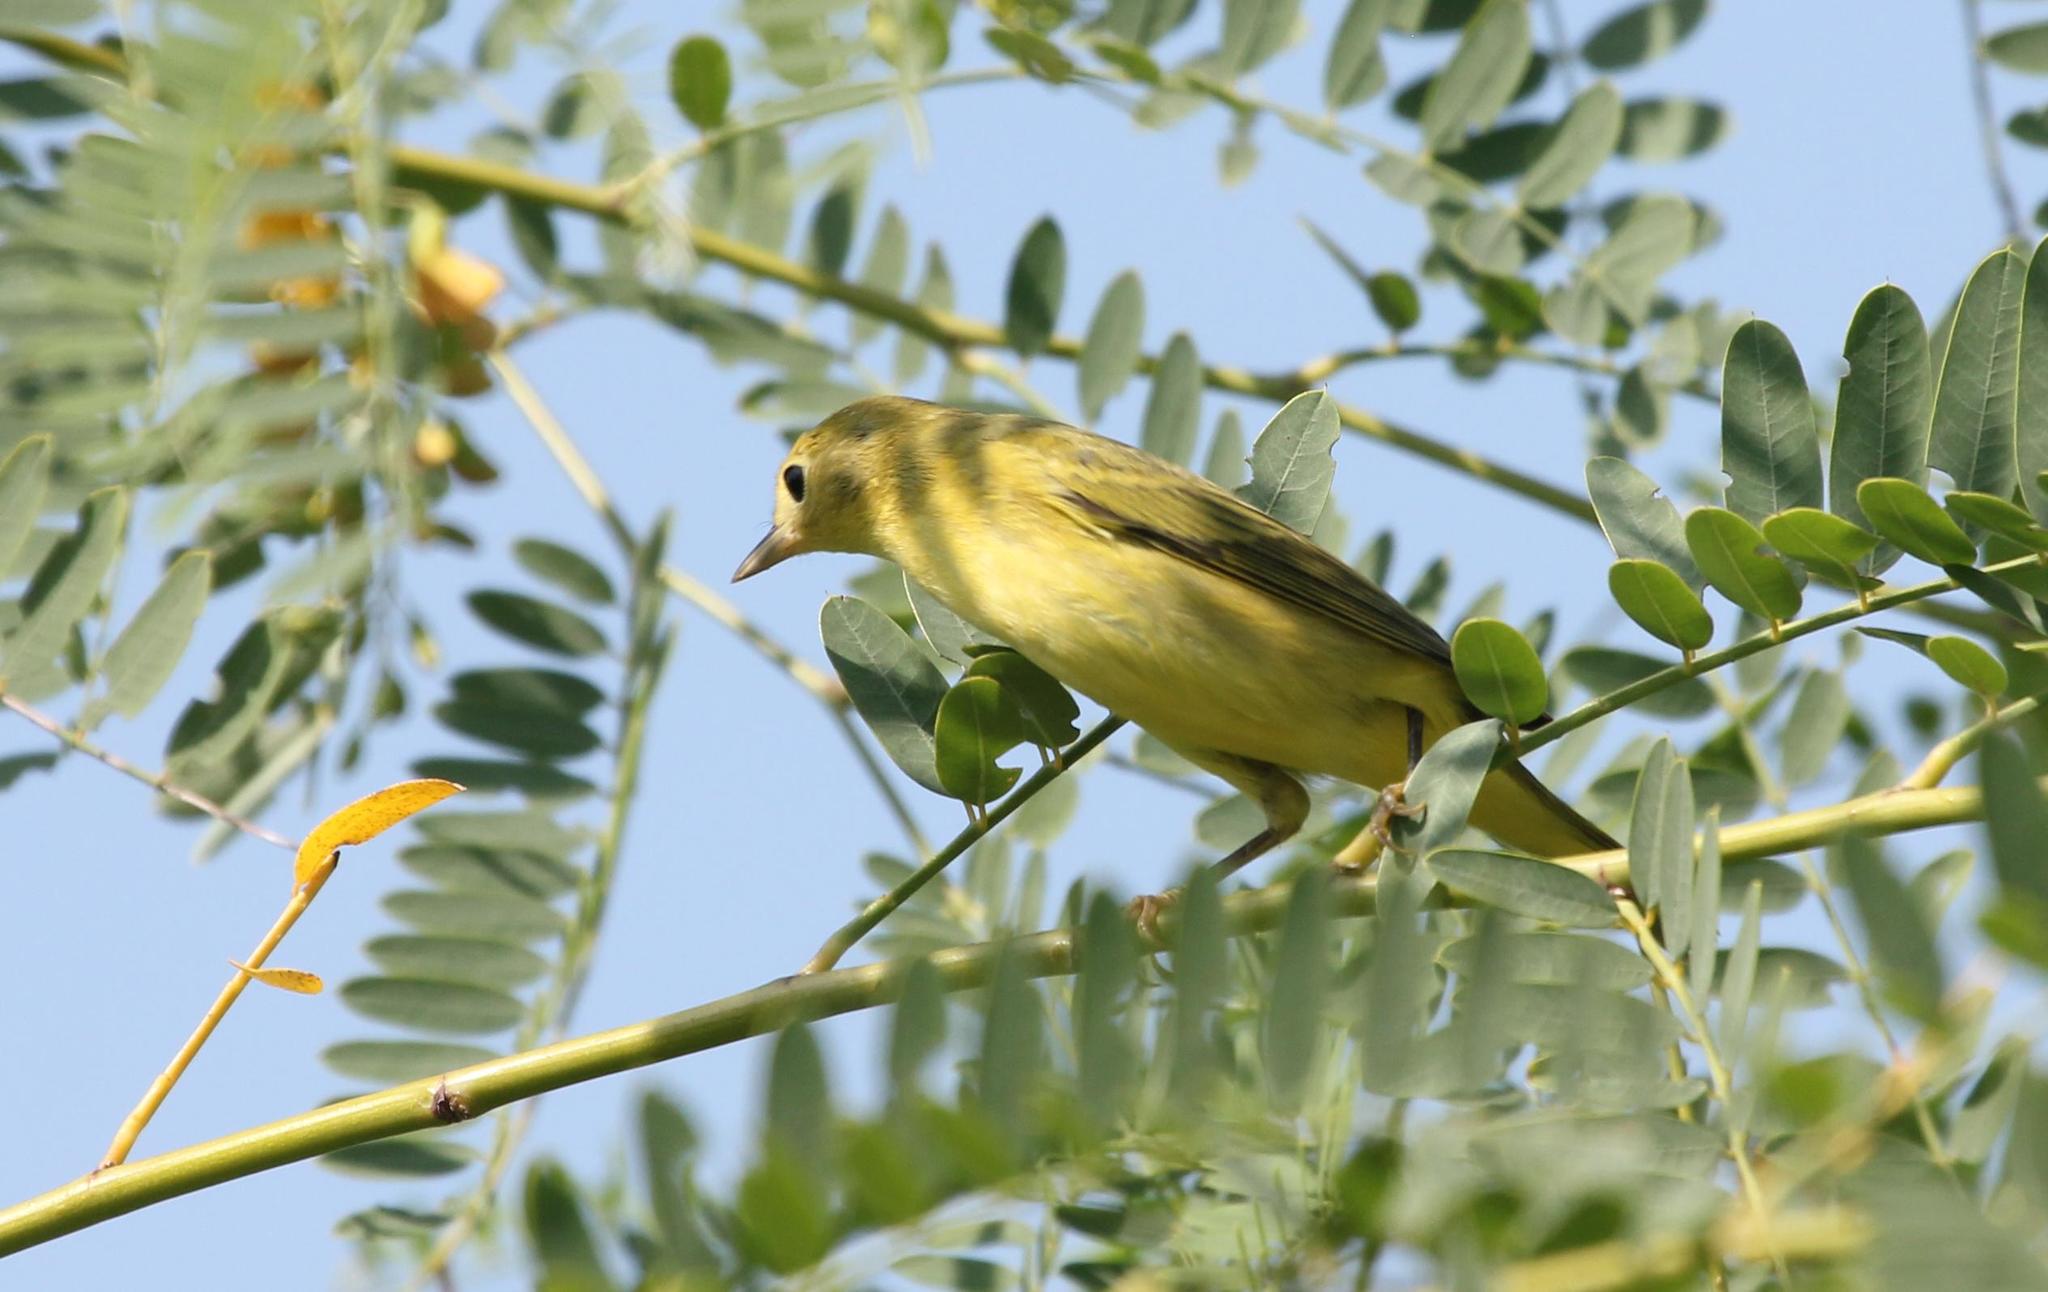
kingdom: Animalia
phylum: Chordata
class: Aves
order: Passeriformes
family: Parulidae
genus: Setophaga
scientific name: Setophaga petechia
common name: Yellow warbler
